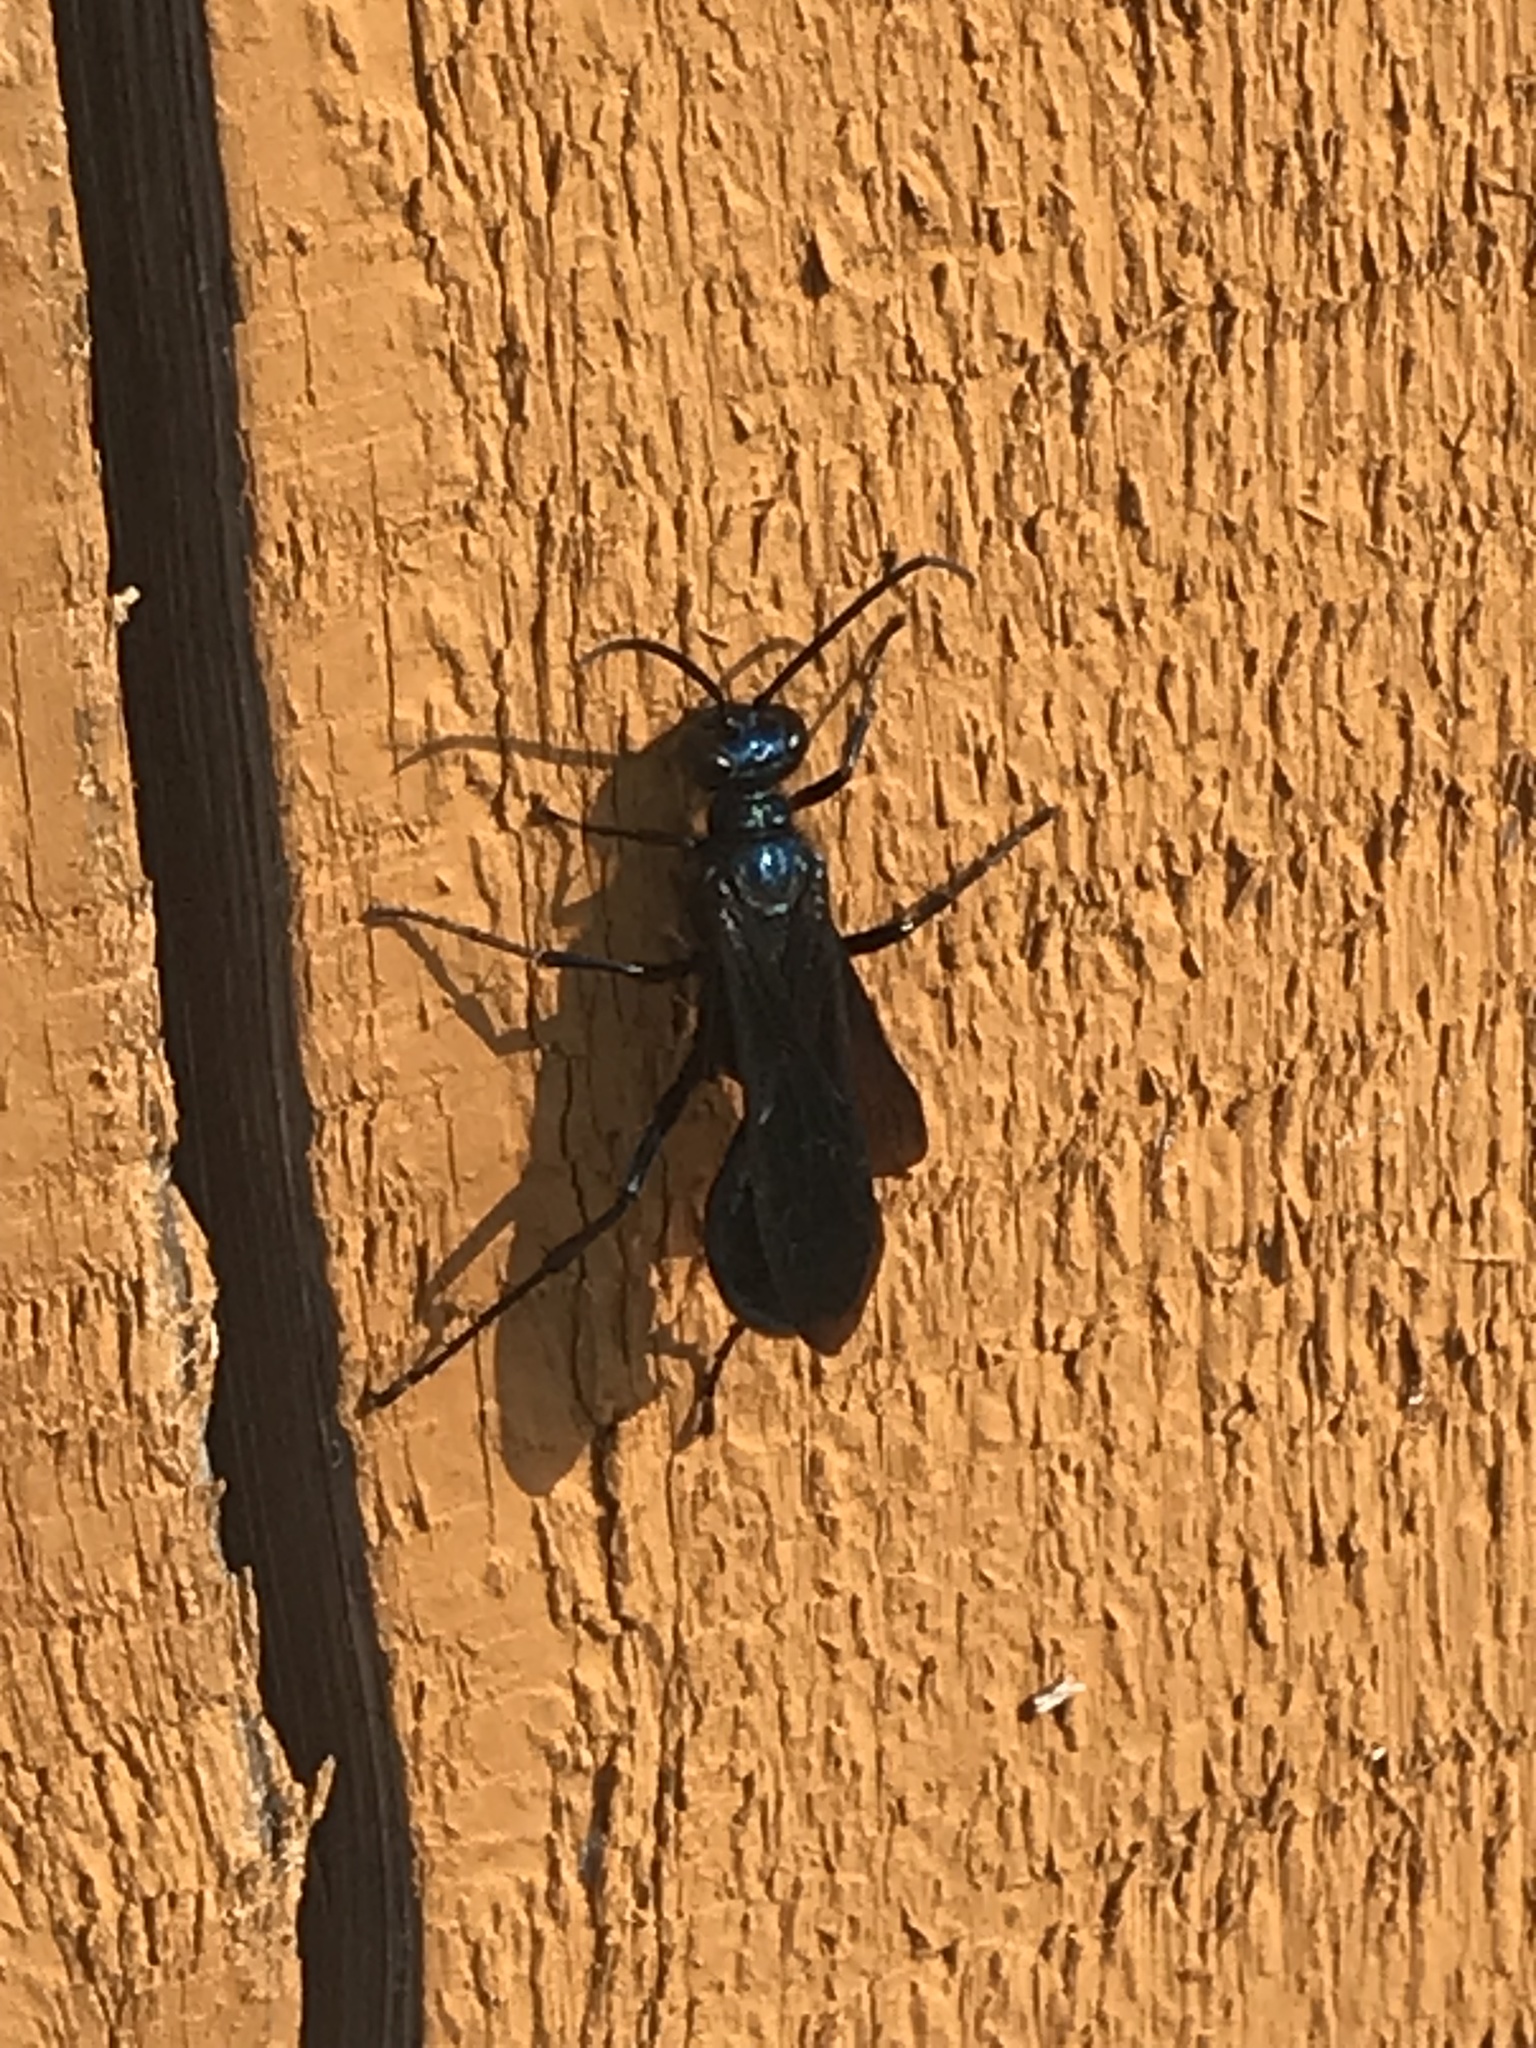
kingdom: Animalia
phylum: Arthropoda
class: Insecta
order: Hymenoptera
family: Sphecidae
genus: Chalybion
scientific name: Chalybion californicum
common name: Mud dauber
